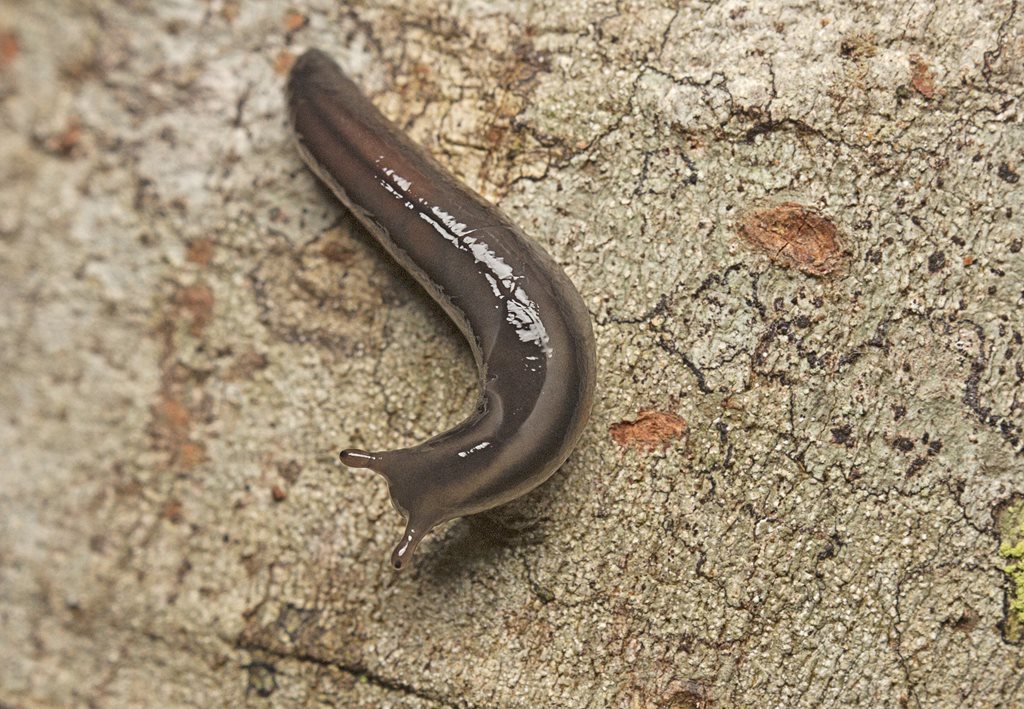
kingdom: Animalia
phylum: Mollusca
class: Gastropoda
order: Stylommatophora
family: Athoracophoridae
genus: Triboniophorus
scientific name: Triboniophorus graeffei
